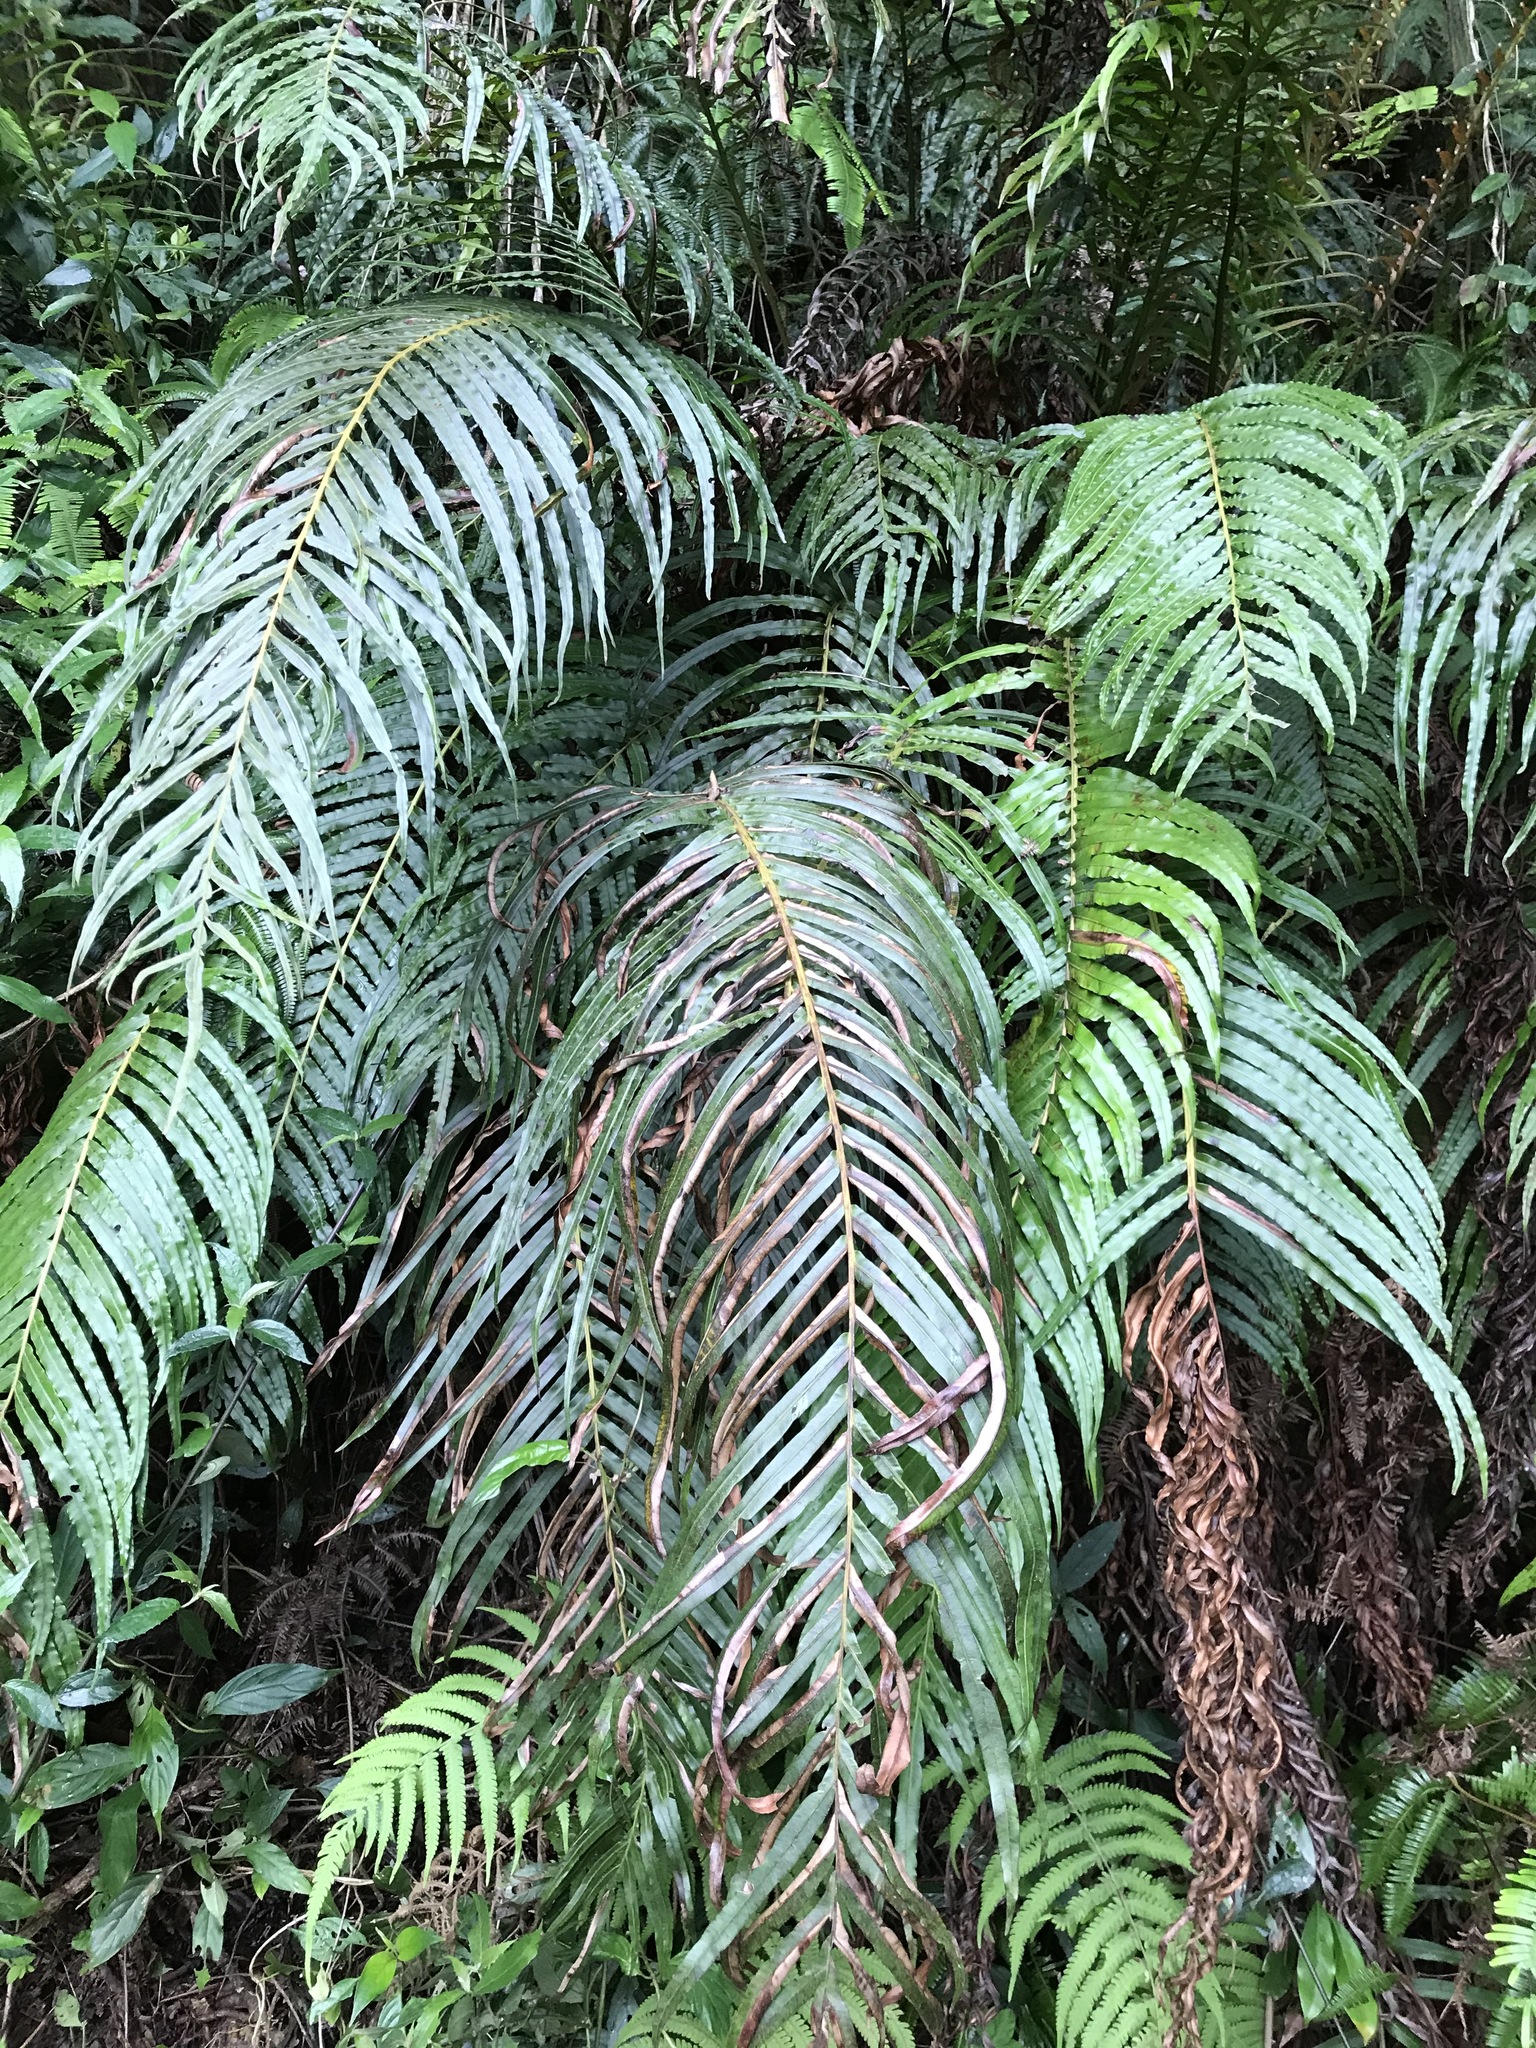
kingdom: Plantae
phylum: Tracheophyta
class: Polypodiopsida
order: Polypodiales
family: Blechnaceae
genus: Blechnopsis
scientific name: Blechnopsis orientalis
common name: Oriental blechnum
